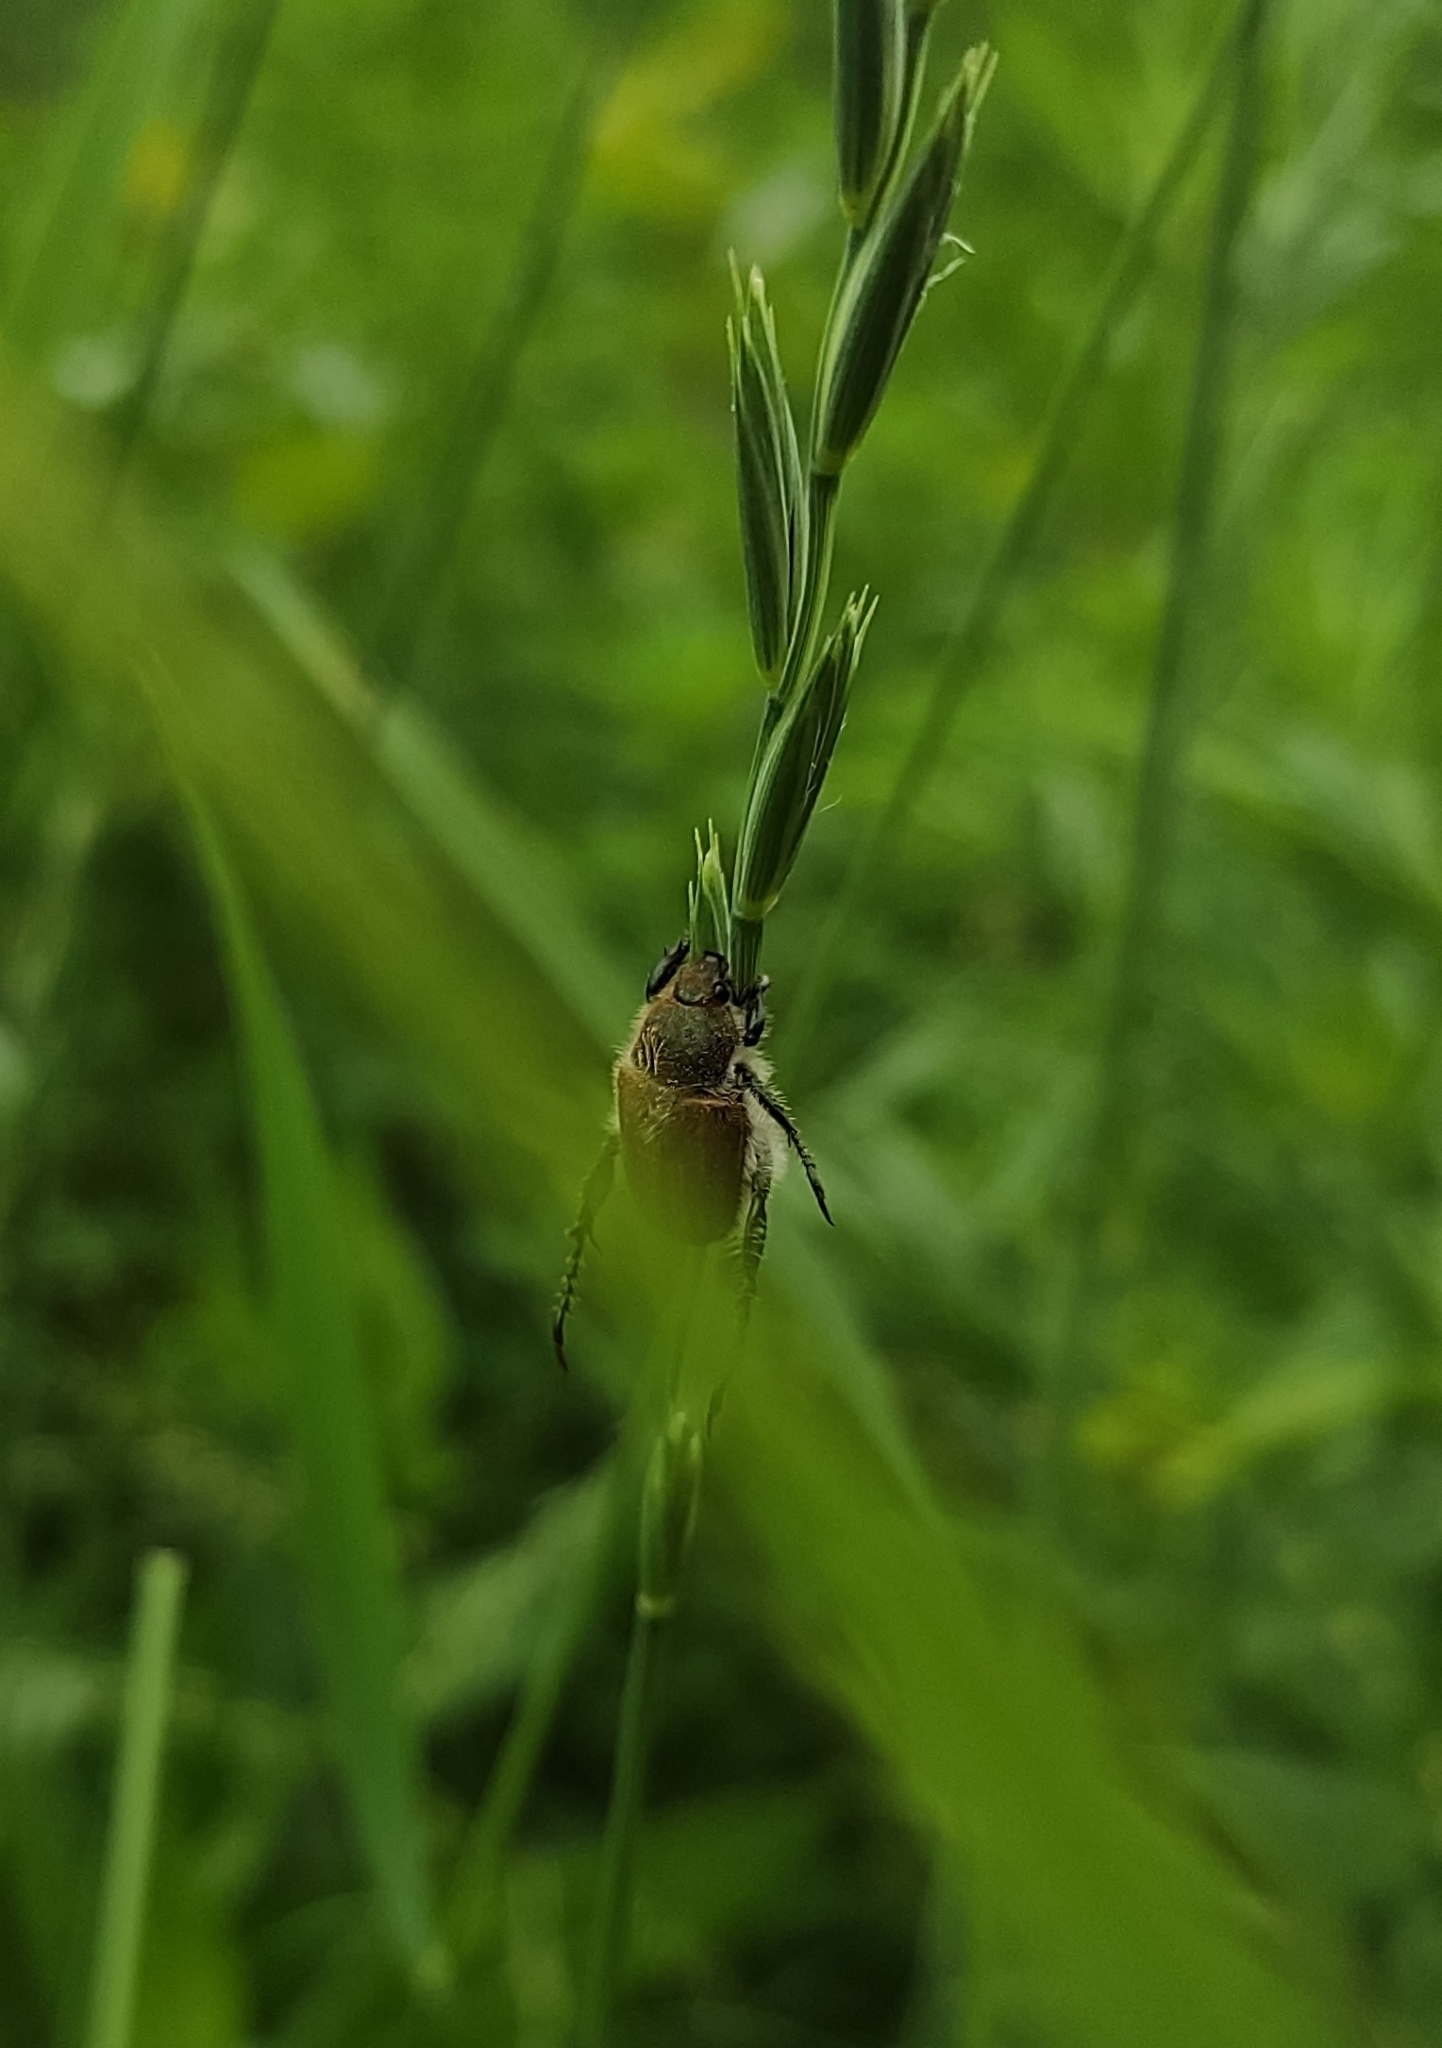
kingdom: Animalia
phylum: Arthropoda
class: Insecta
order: Coleoptera
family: Scarabaeidae
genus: Chaetopteroplia
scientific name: Chaetopteroplia segetum
